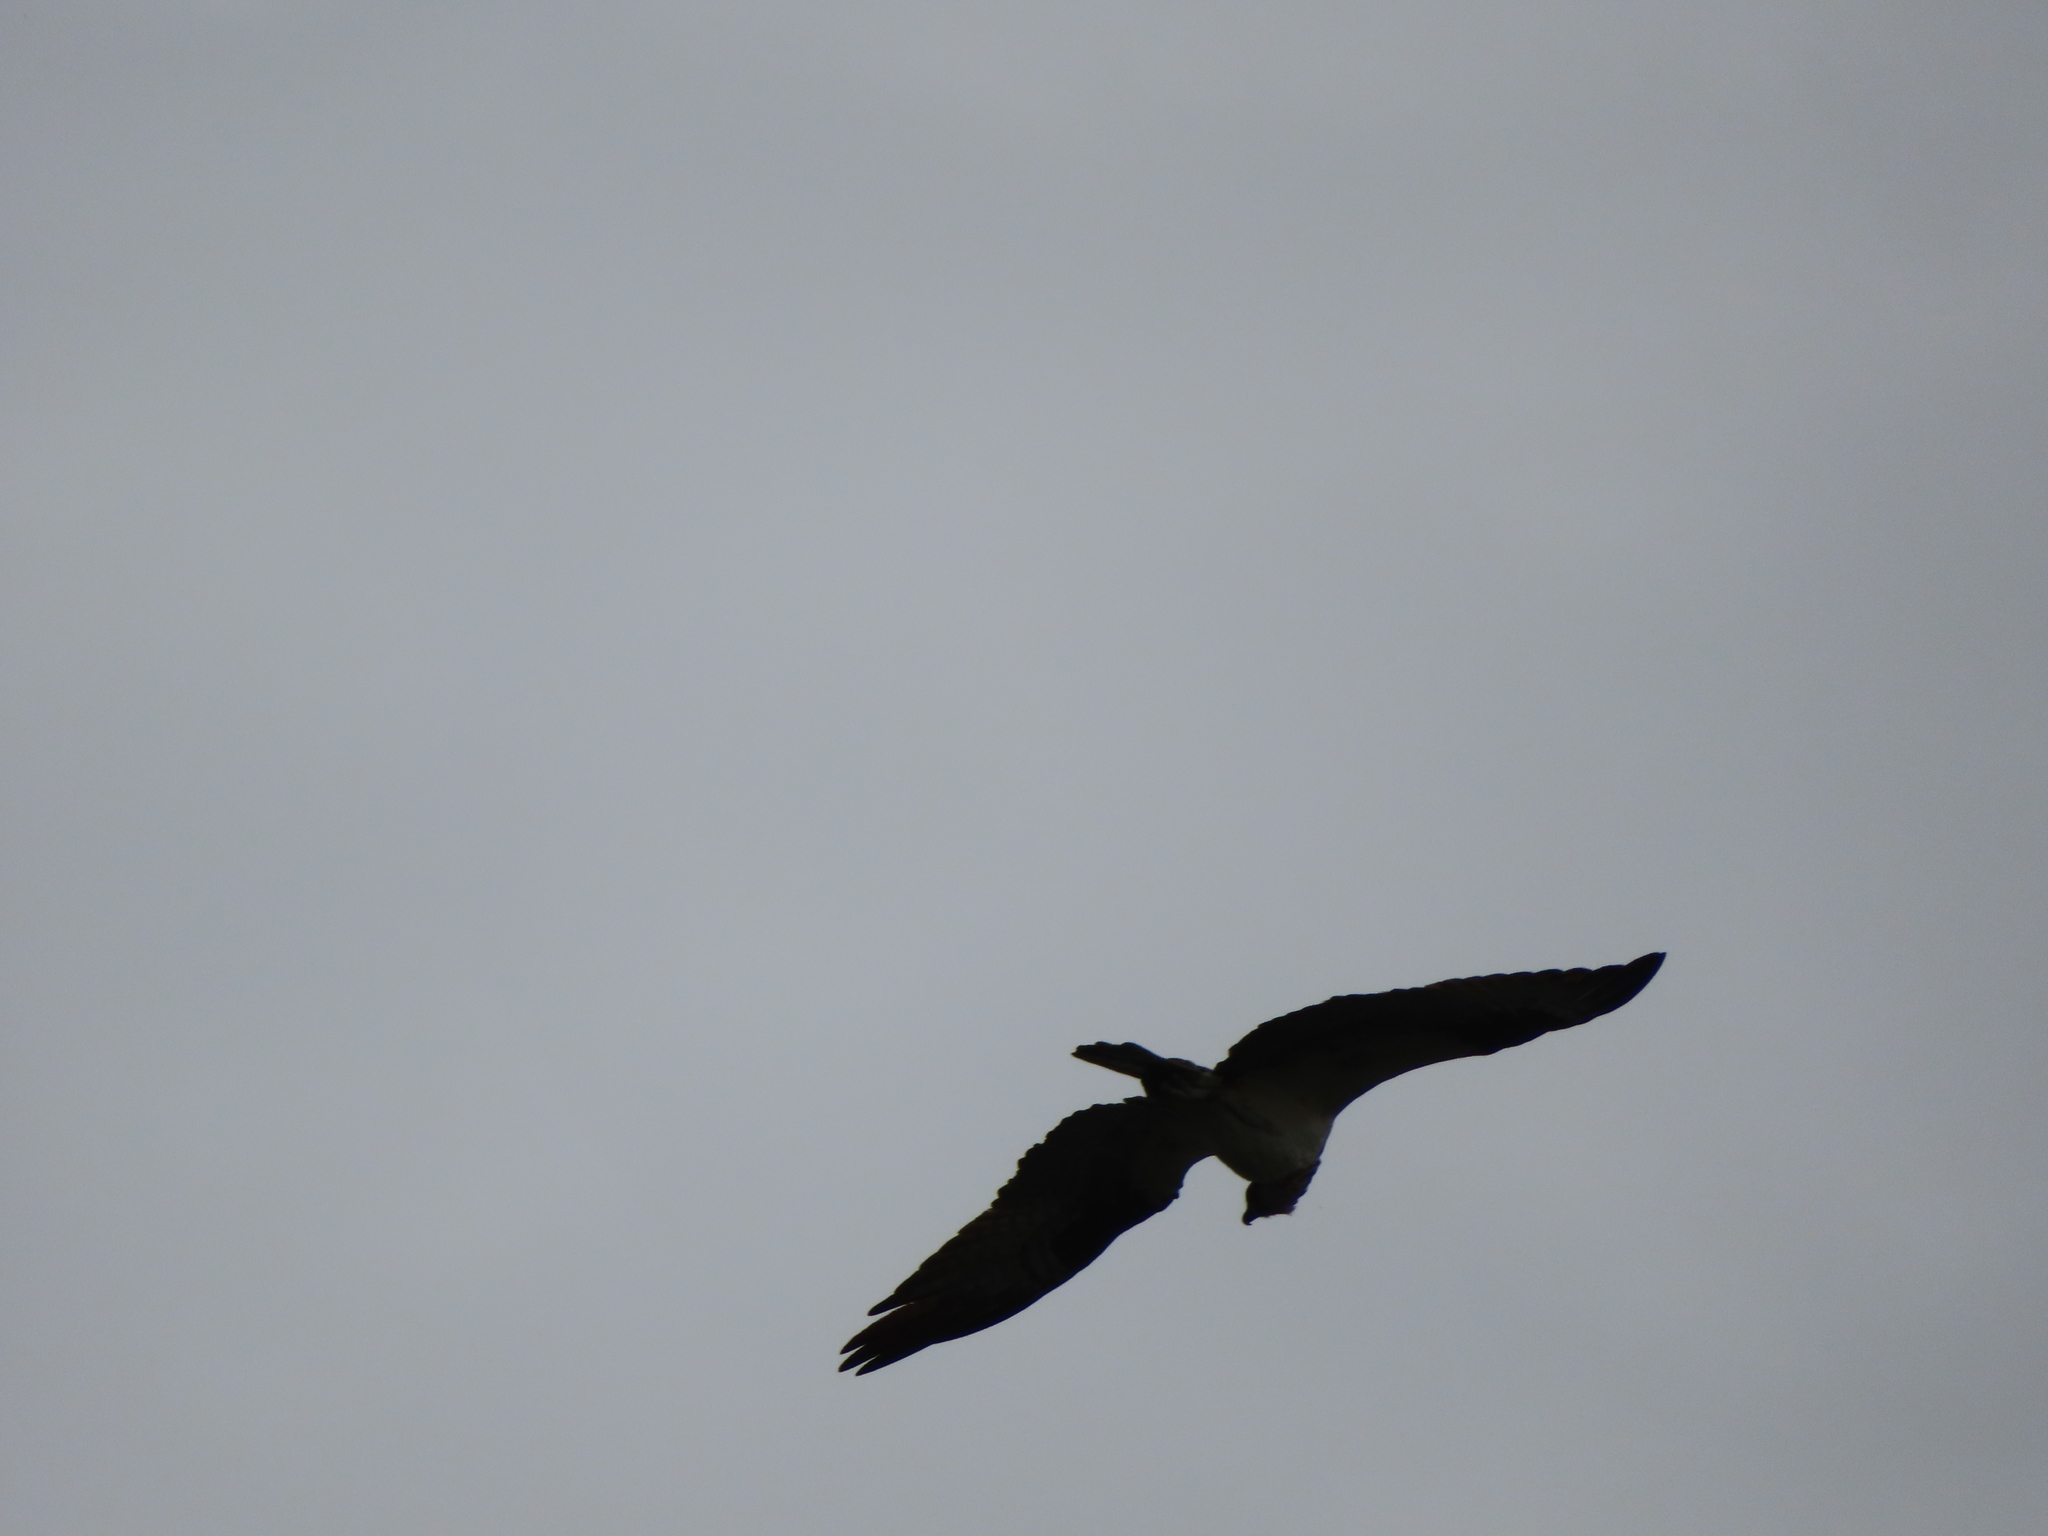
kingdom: Animalia
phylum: Chordata
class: Aves
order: Accipitriformes
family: Pandionidae
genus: Pandion
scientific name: Pandion haliaetus
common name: Osprey
